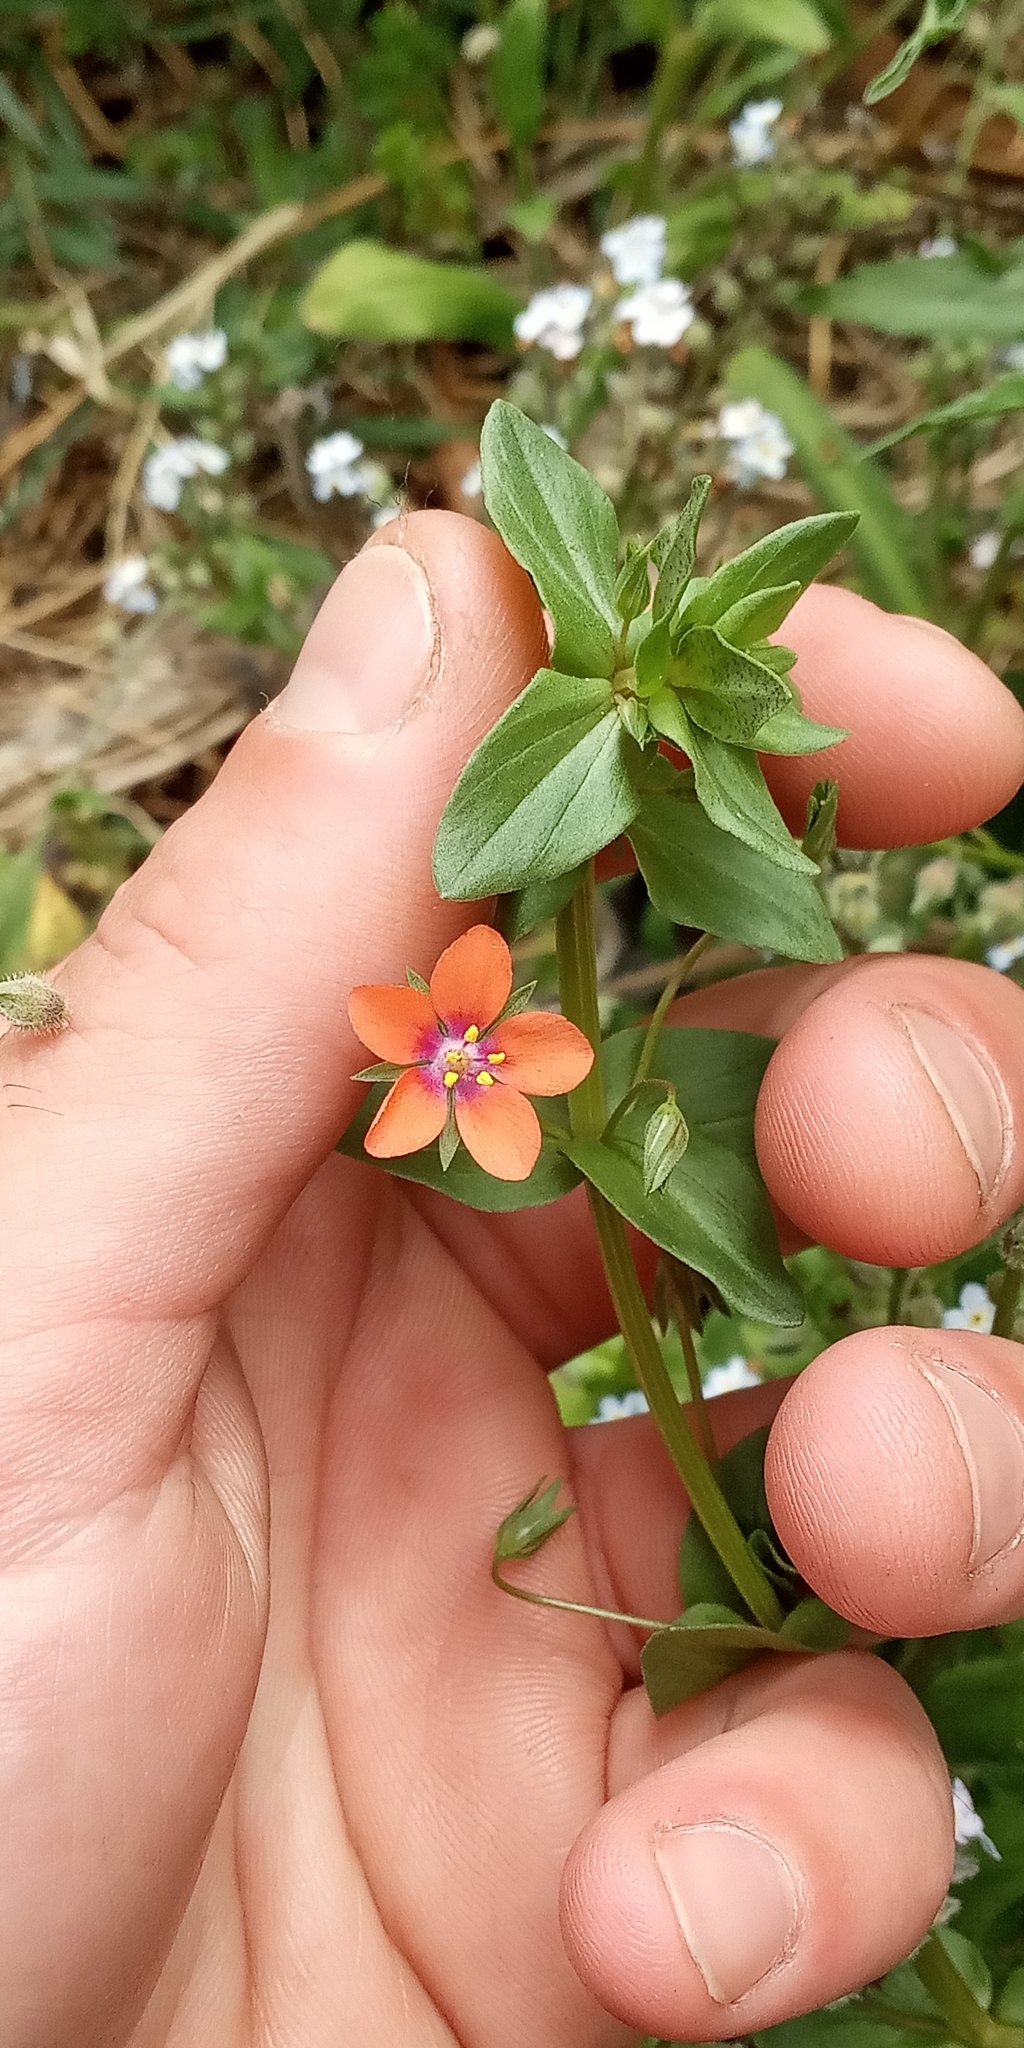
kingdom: Plantae
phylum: Tracheophyta
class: Magnoliopsida
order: Ericales
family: Primulaceae
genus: Lysimachia
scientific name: Lysimachia arvensis
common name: Scarlet pimpernel
